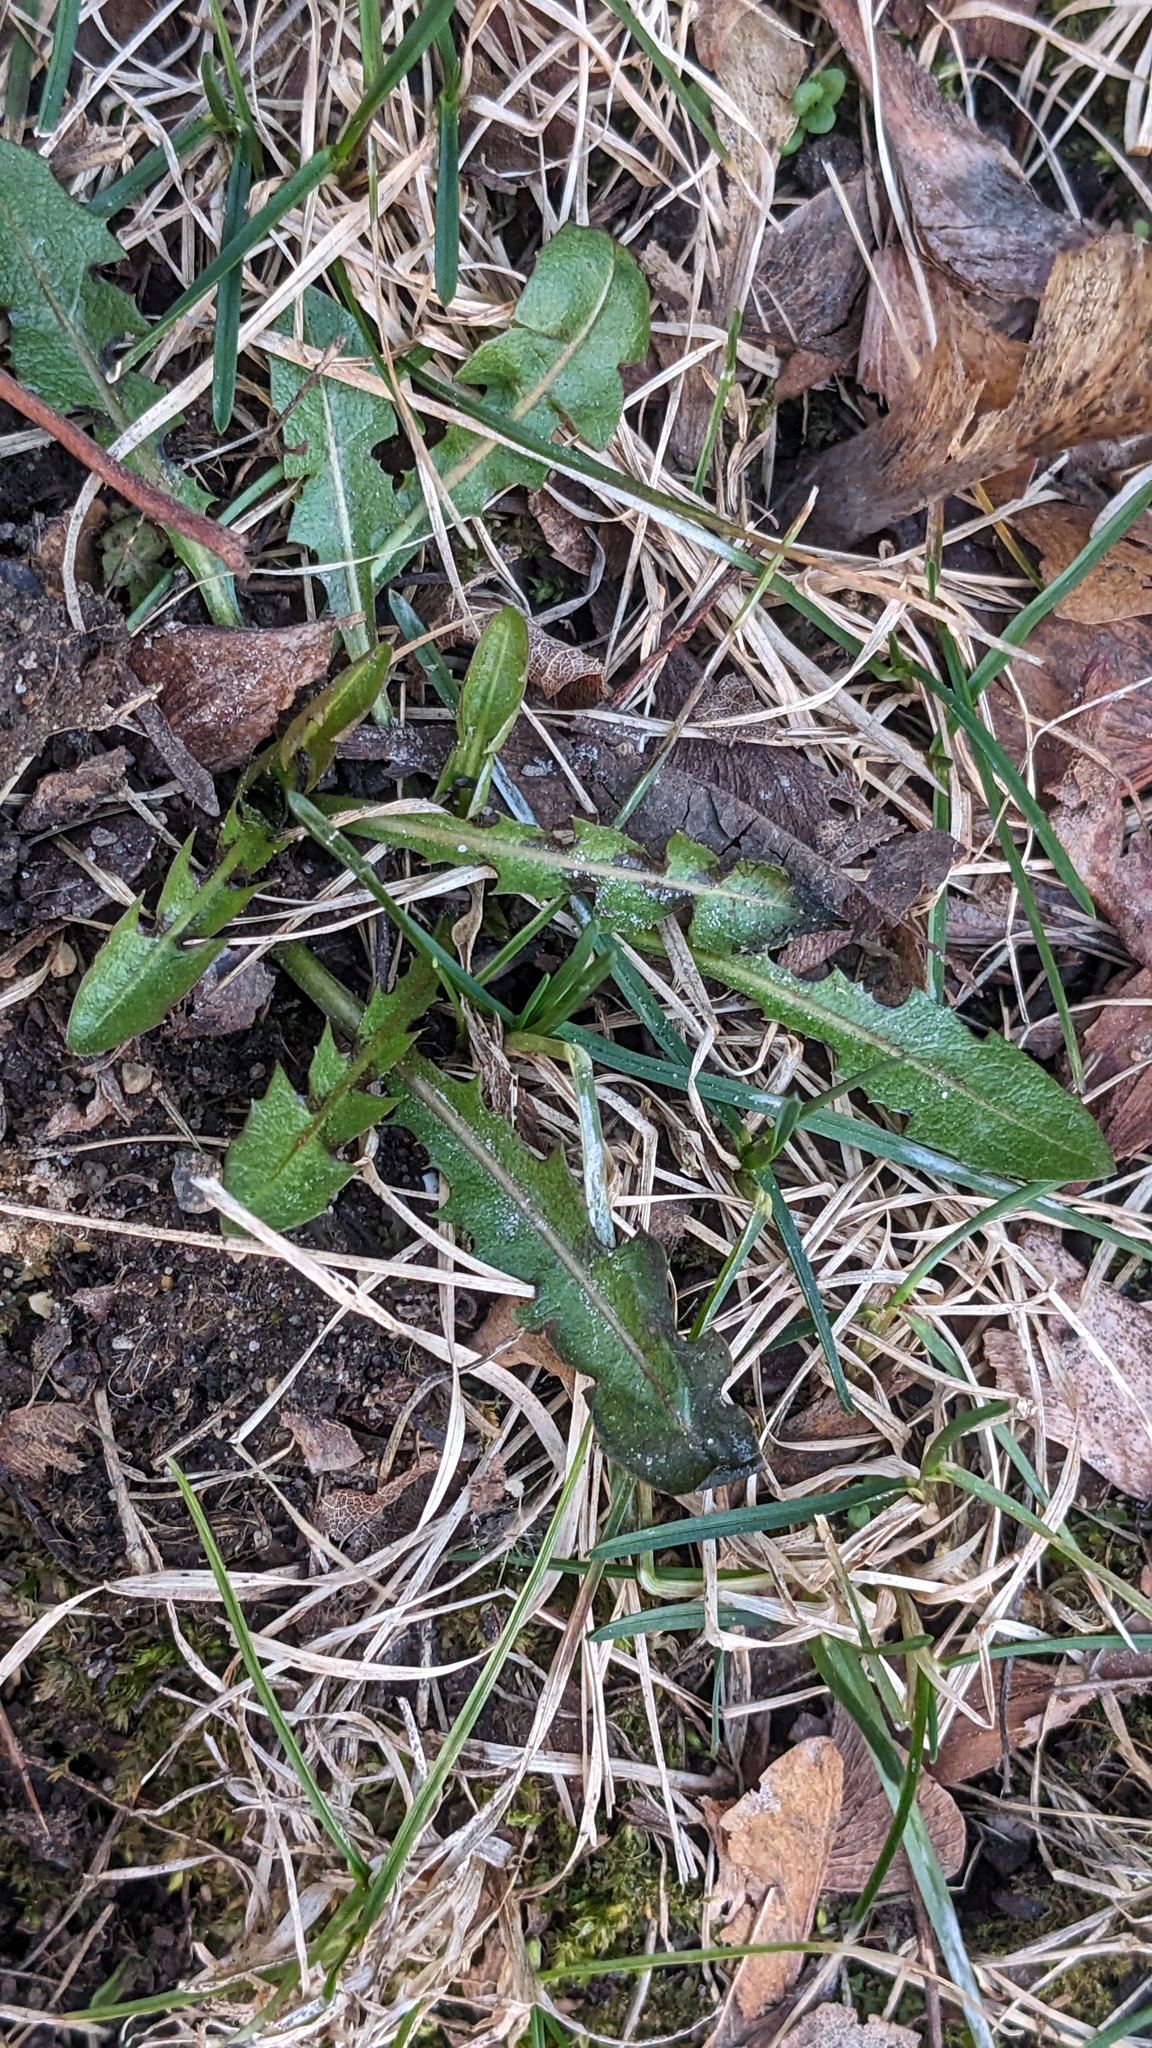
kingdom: Plantae
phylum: Tracheophyta
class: Magnoliopsida
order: Asterales
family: Asteraceae
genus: Taraxacum
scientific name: Taraxacum
